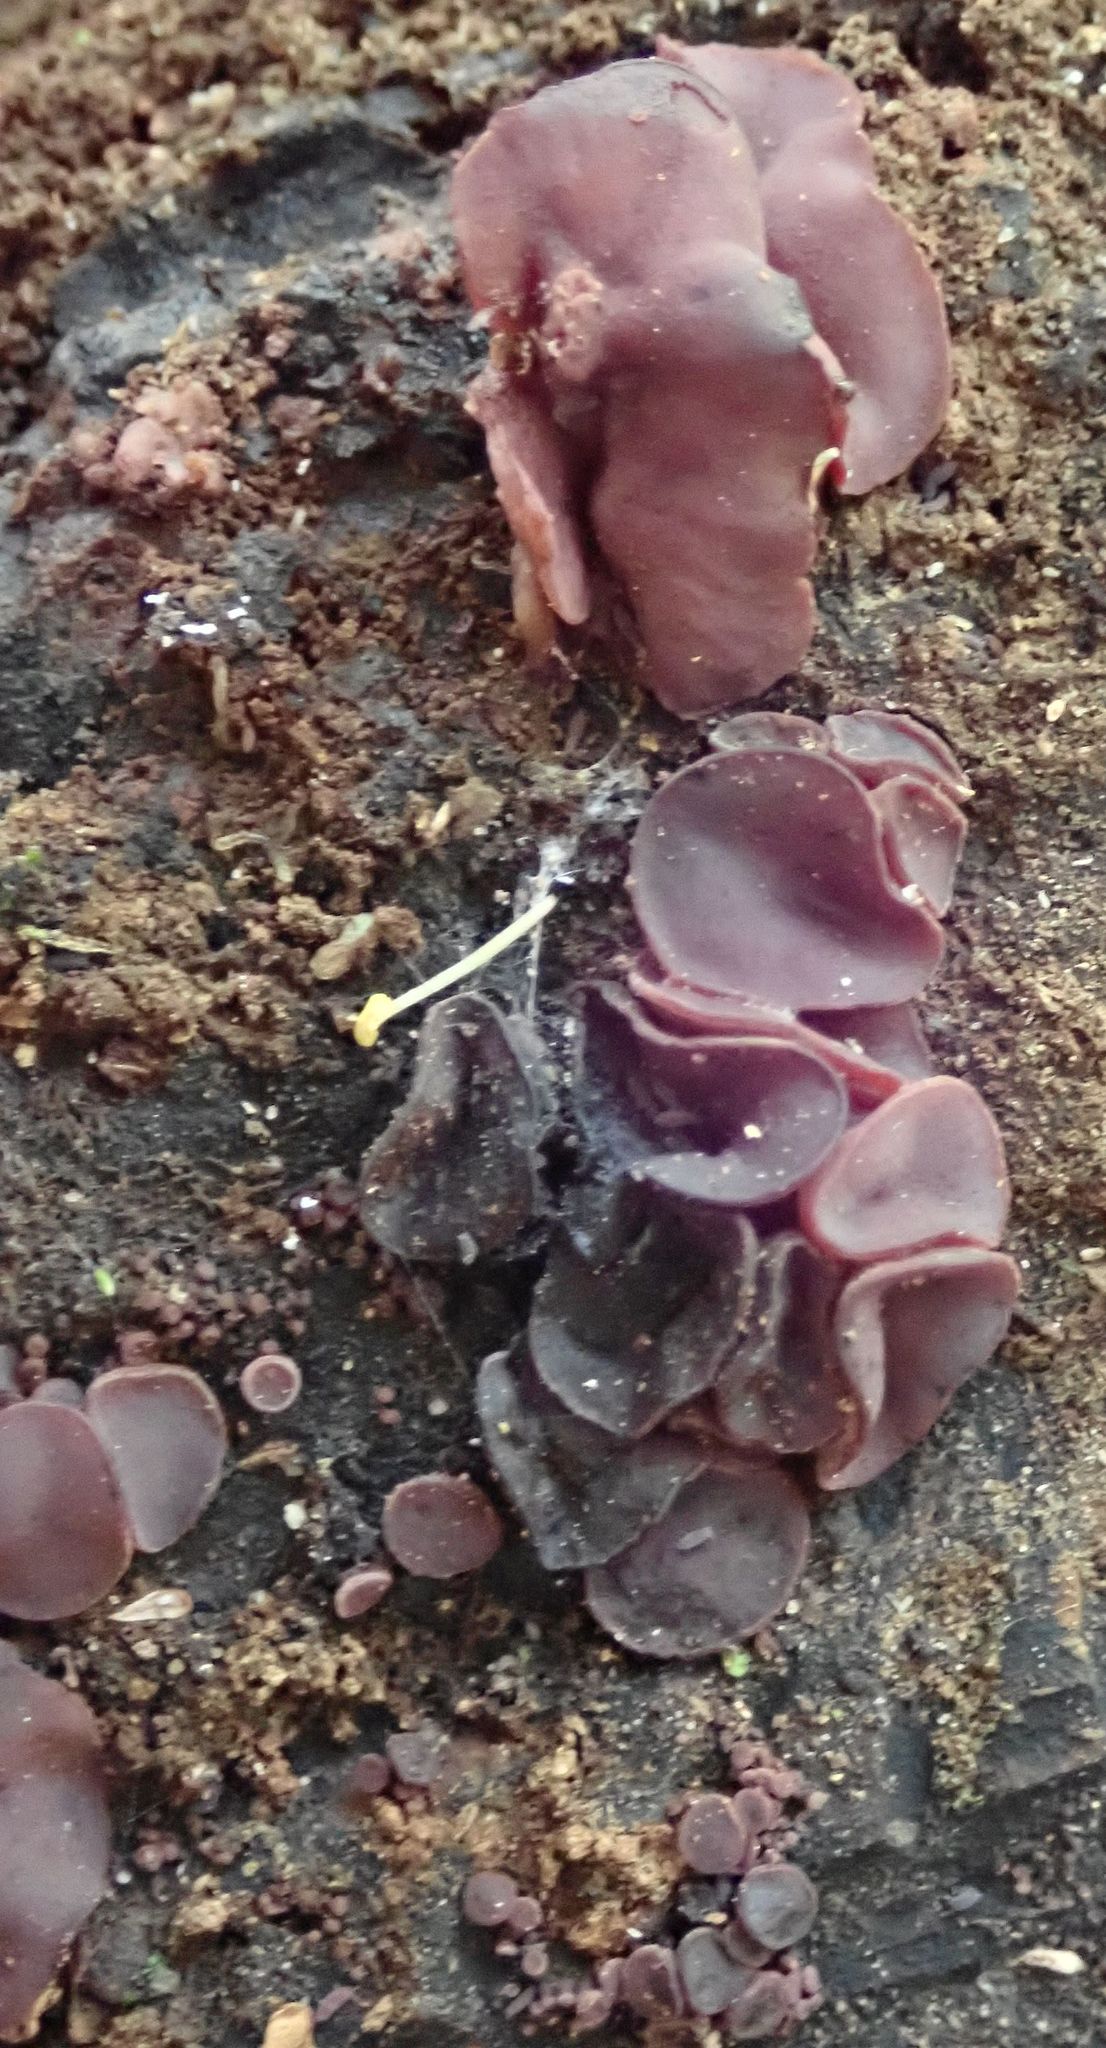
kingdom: Fungi
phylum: Ascomycota
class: Leotiomycetes
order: Helotiales
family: Gelatinodiscaceae
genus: Ascocoryne
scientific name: Ascocoryne sarcoides
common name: Purple jellydisc
